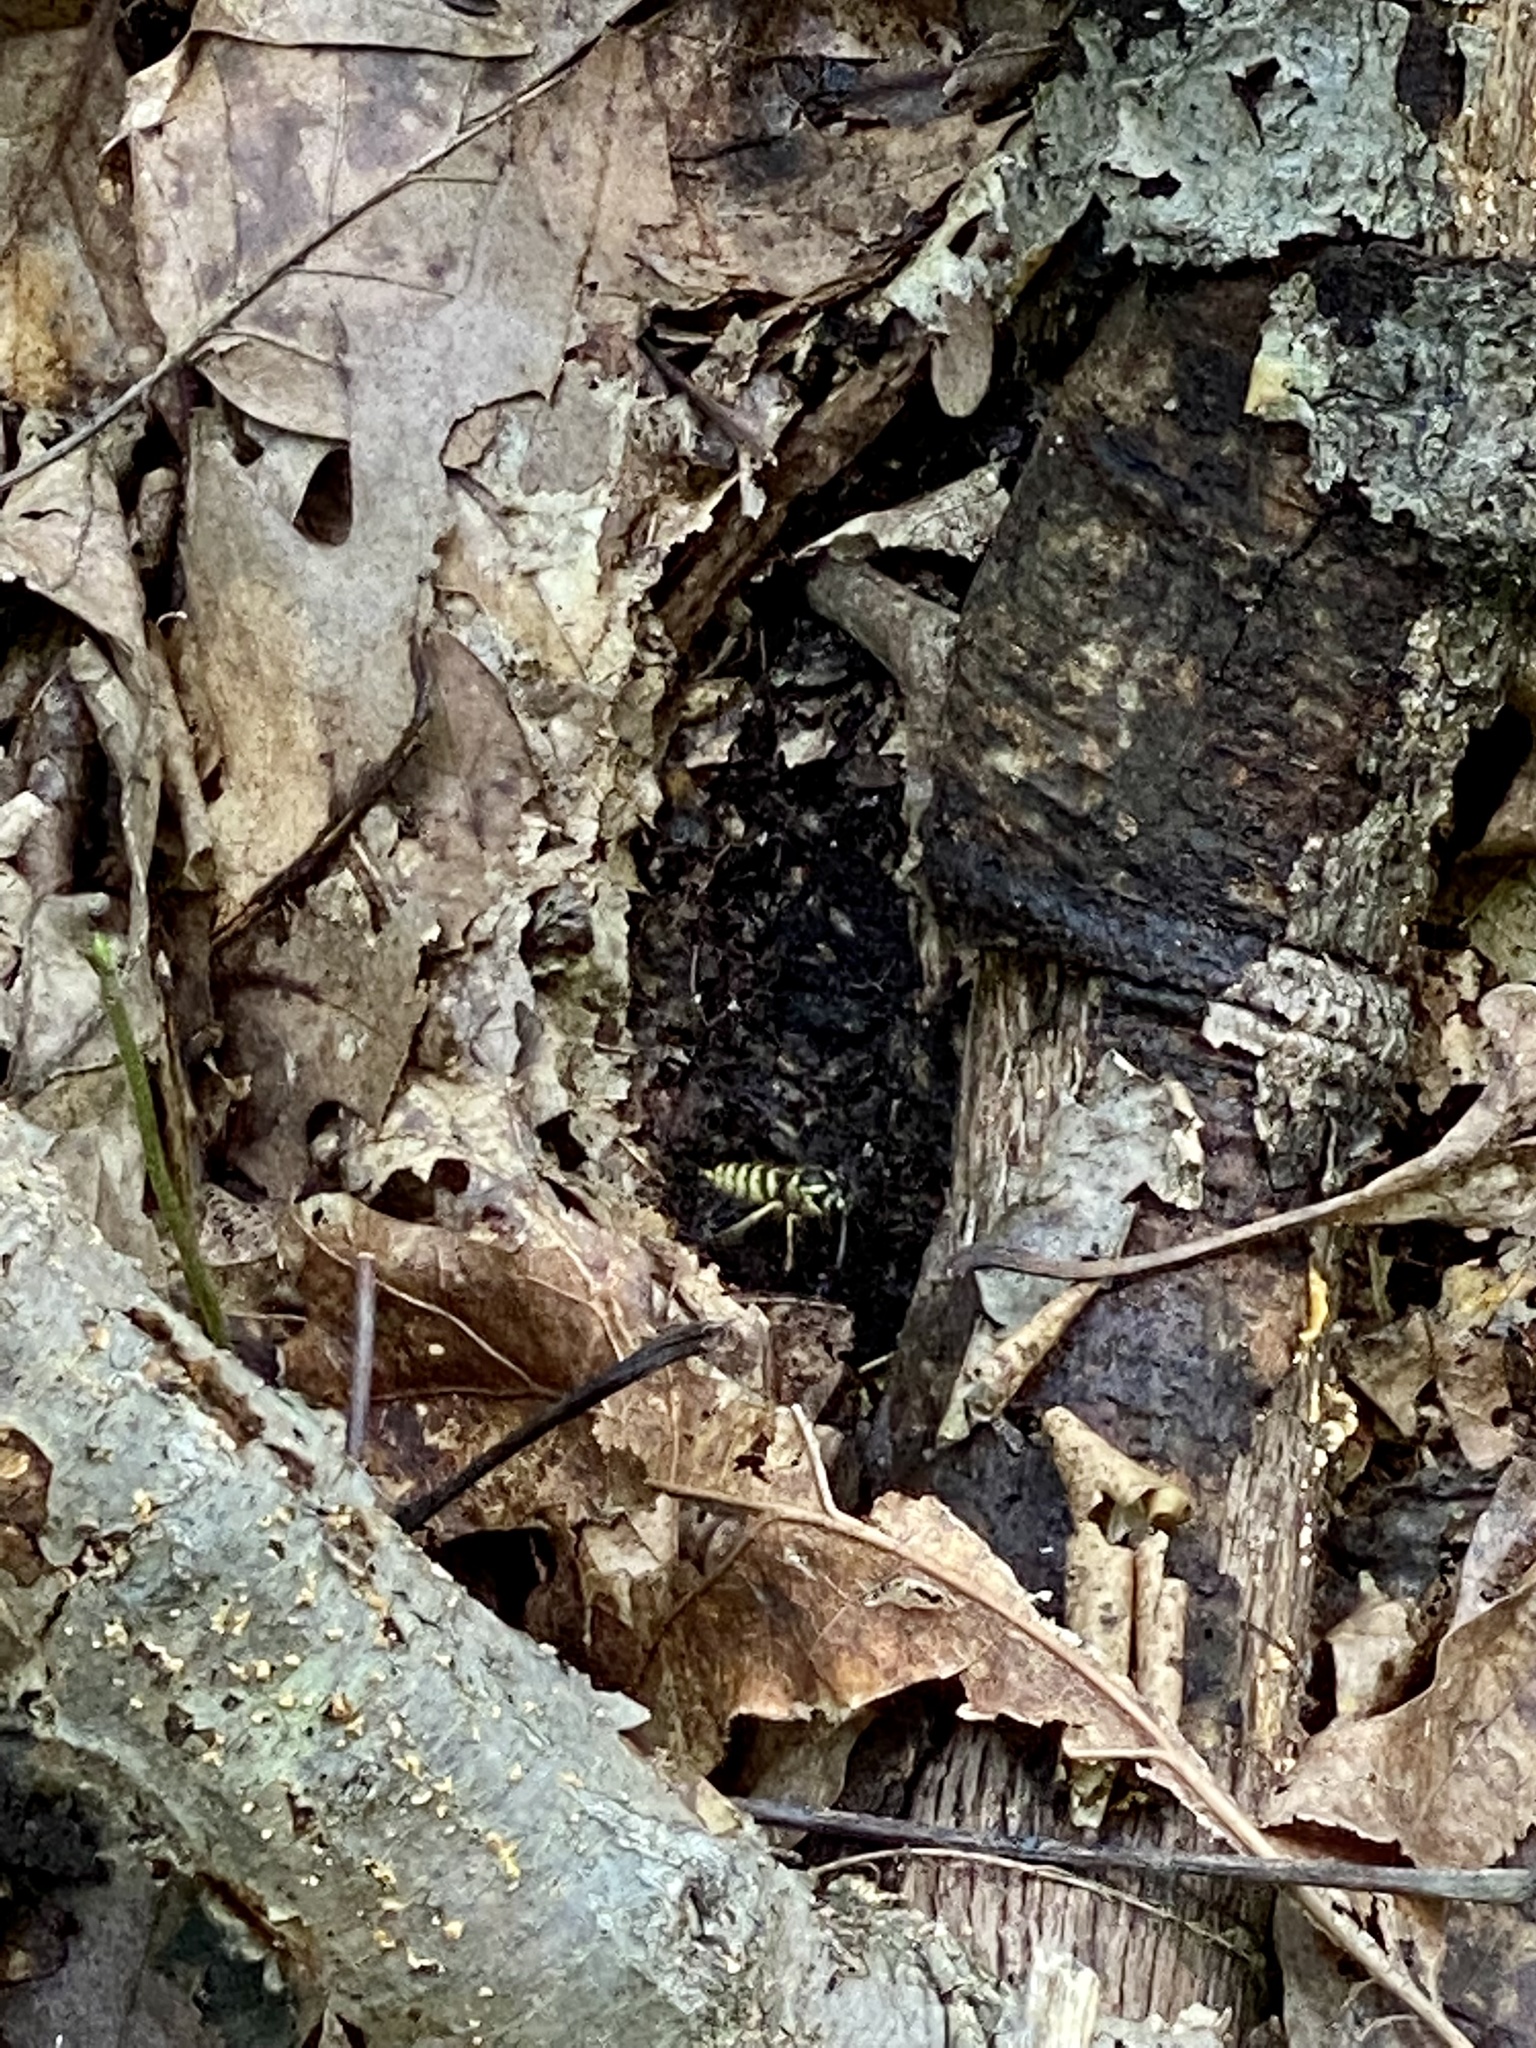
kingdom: Animalia
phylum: Arthropoda
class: Insecta
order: Hymenoptera
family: Vespidae
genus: Vespula
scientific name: Vespula flavopilosa
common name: Downy yellowjacket
